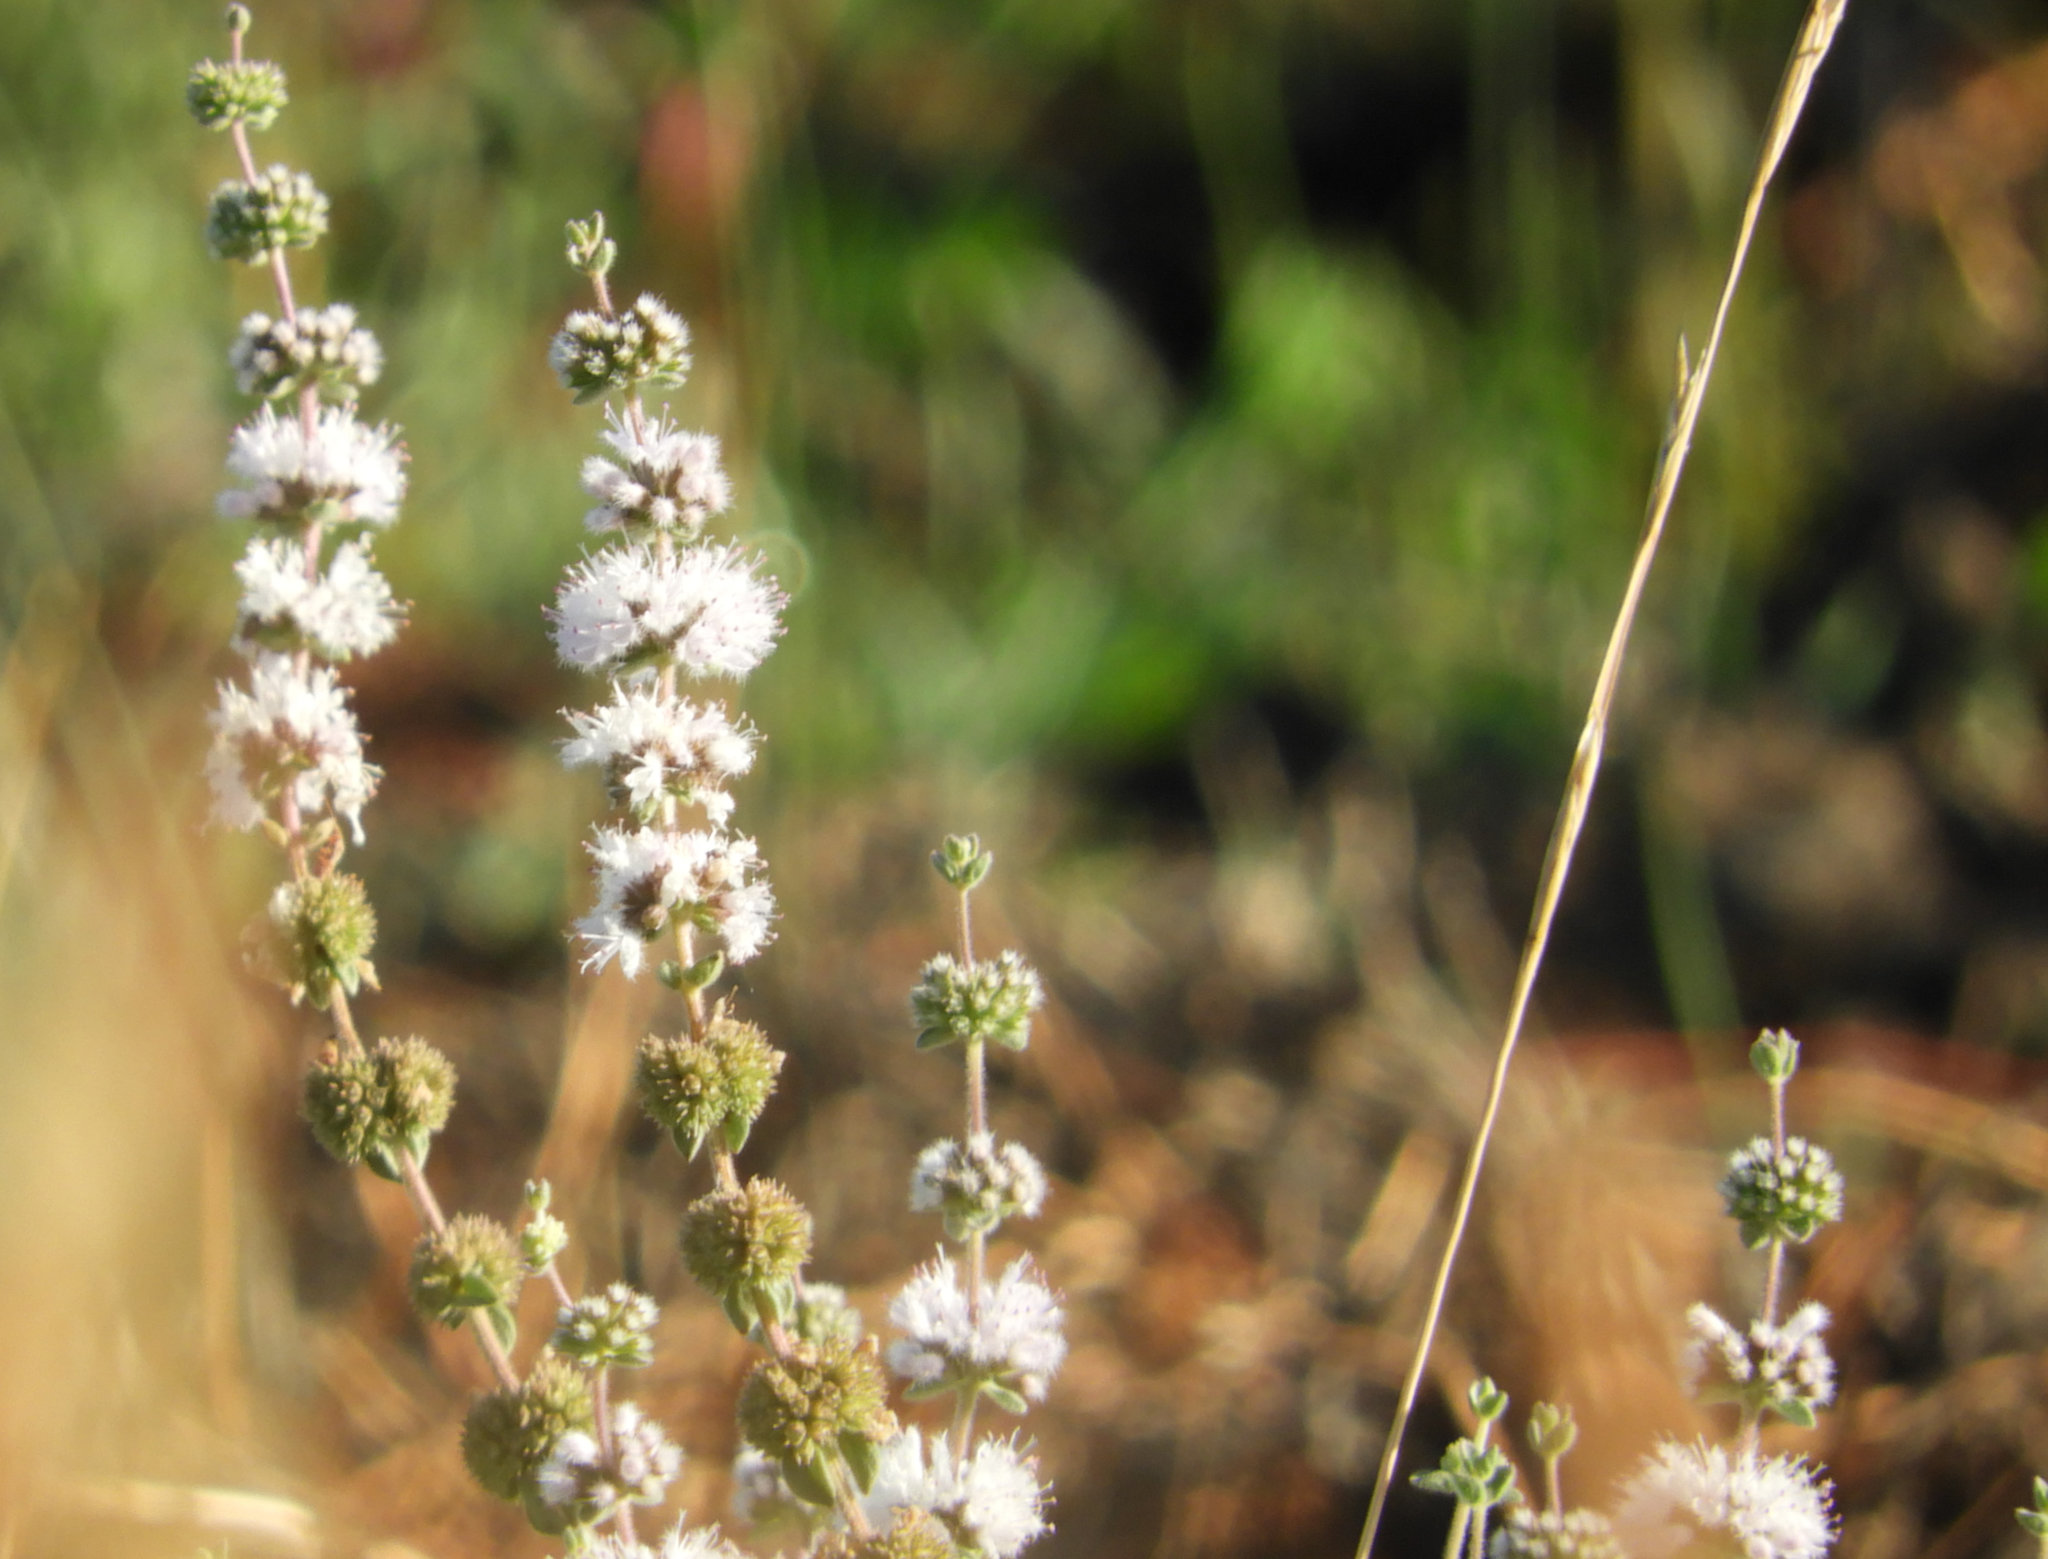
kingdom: Plantae
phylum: Tracheophyta
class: Magnoliopsida
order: Lamiales
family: Lamiaceae
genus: Mentha
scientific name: Mentha pulegium
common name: Pennyroyal
